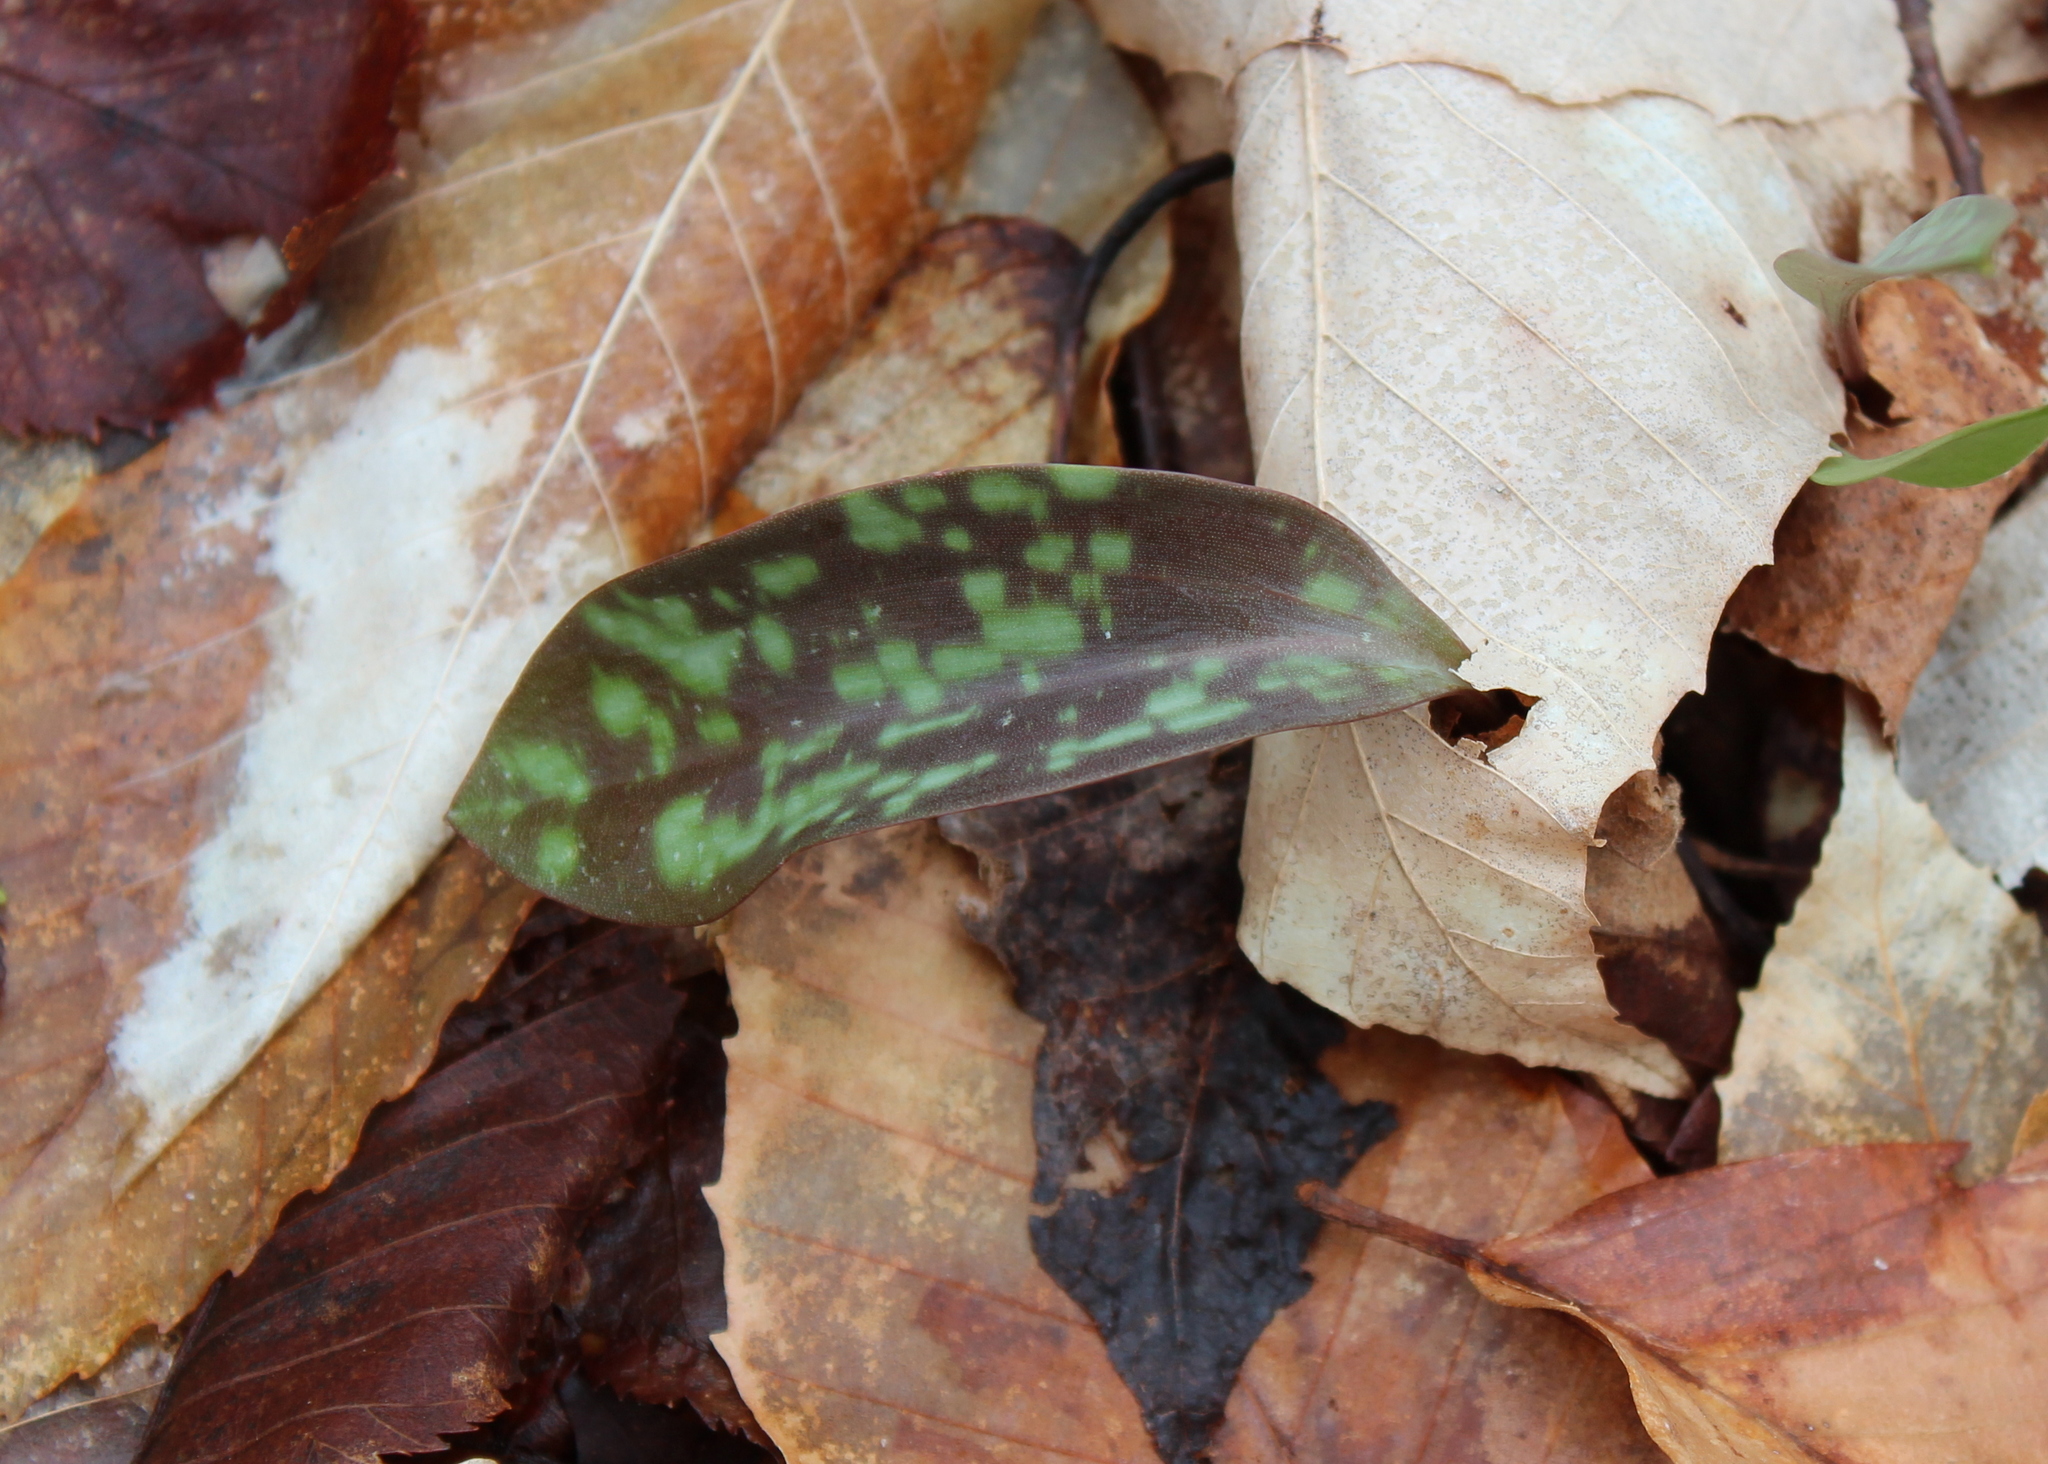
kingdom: Plantae
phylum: Tracheophyta
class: Liliopsida
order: Liliales
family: Liliaceae
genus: Erythronium
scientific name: Erythronium americanum
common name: Yellow adder's-tongue
